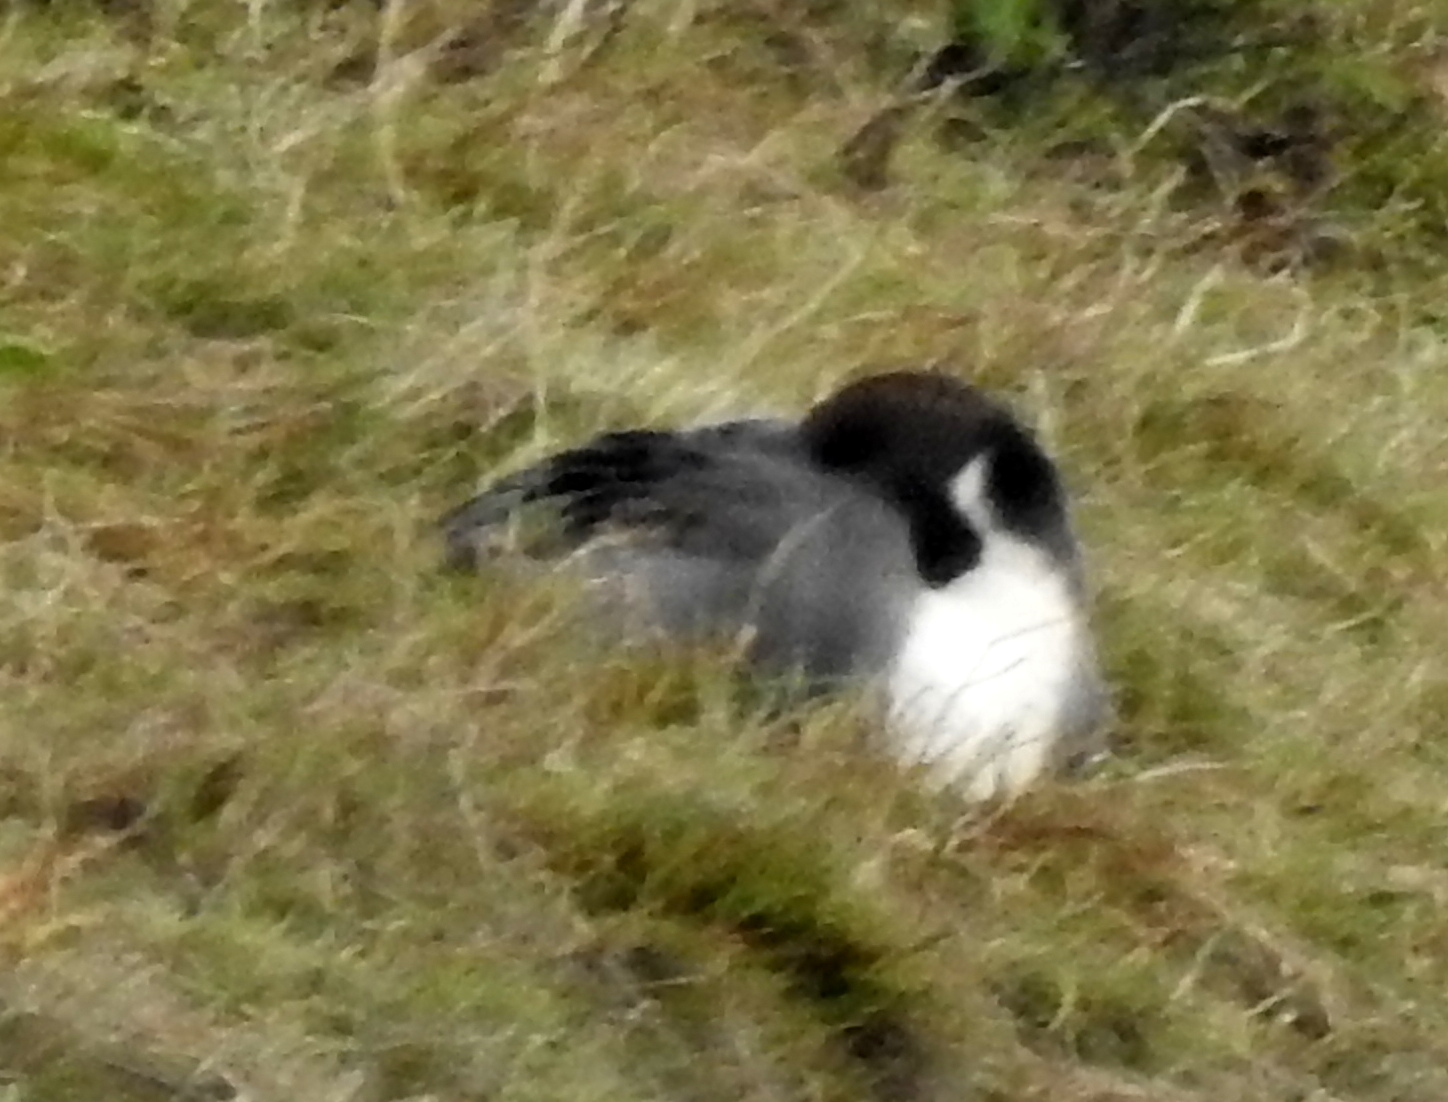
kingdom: Animalia
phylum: Chordata
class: Aves
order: Anseriformes
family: Anatidae
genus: Anas
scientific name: Anas acuta
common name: Northern pintail
